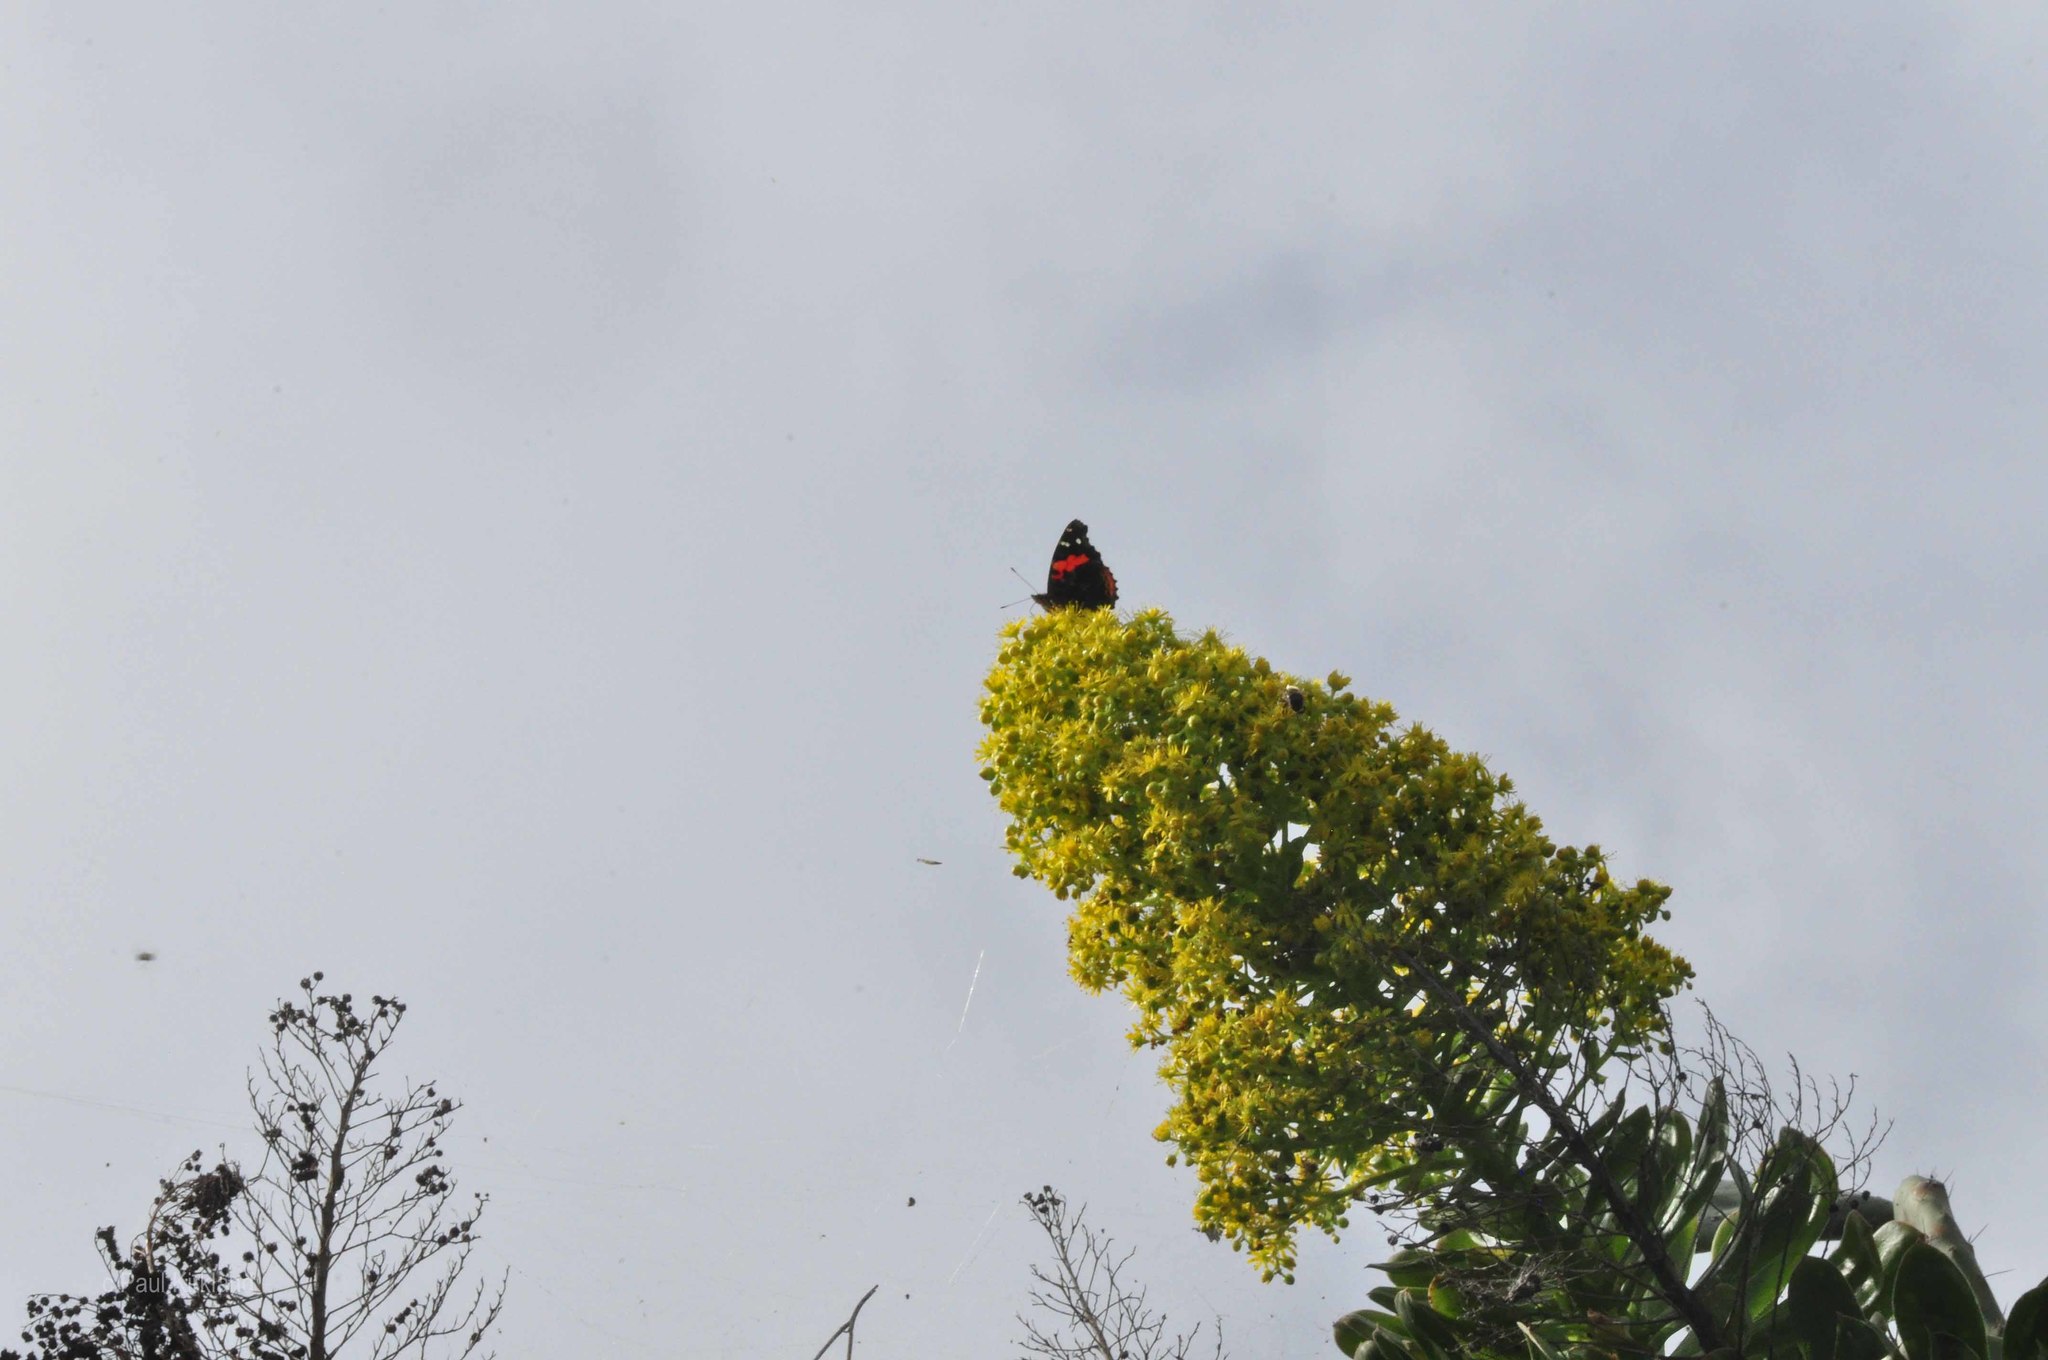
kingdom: Animalia
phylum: Arthropoda
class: Insecta
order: Lepidoptera
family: Nymphalidae
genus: Vanessa
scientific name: Vanessa vulcania
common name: Canary red admiral
